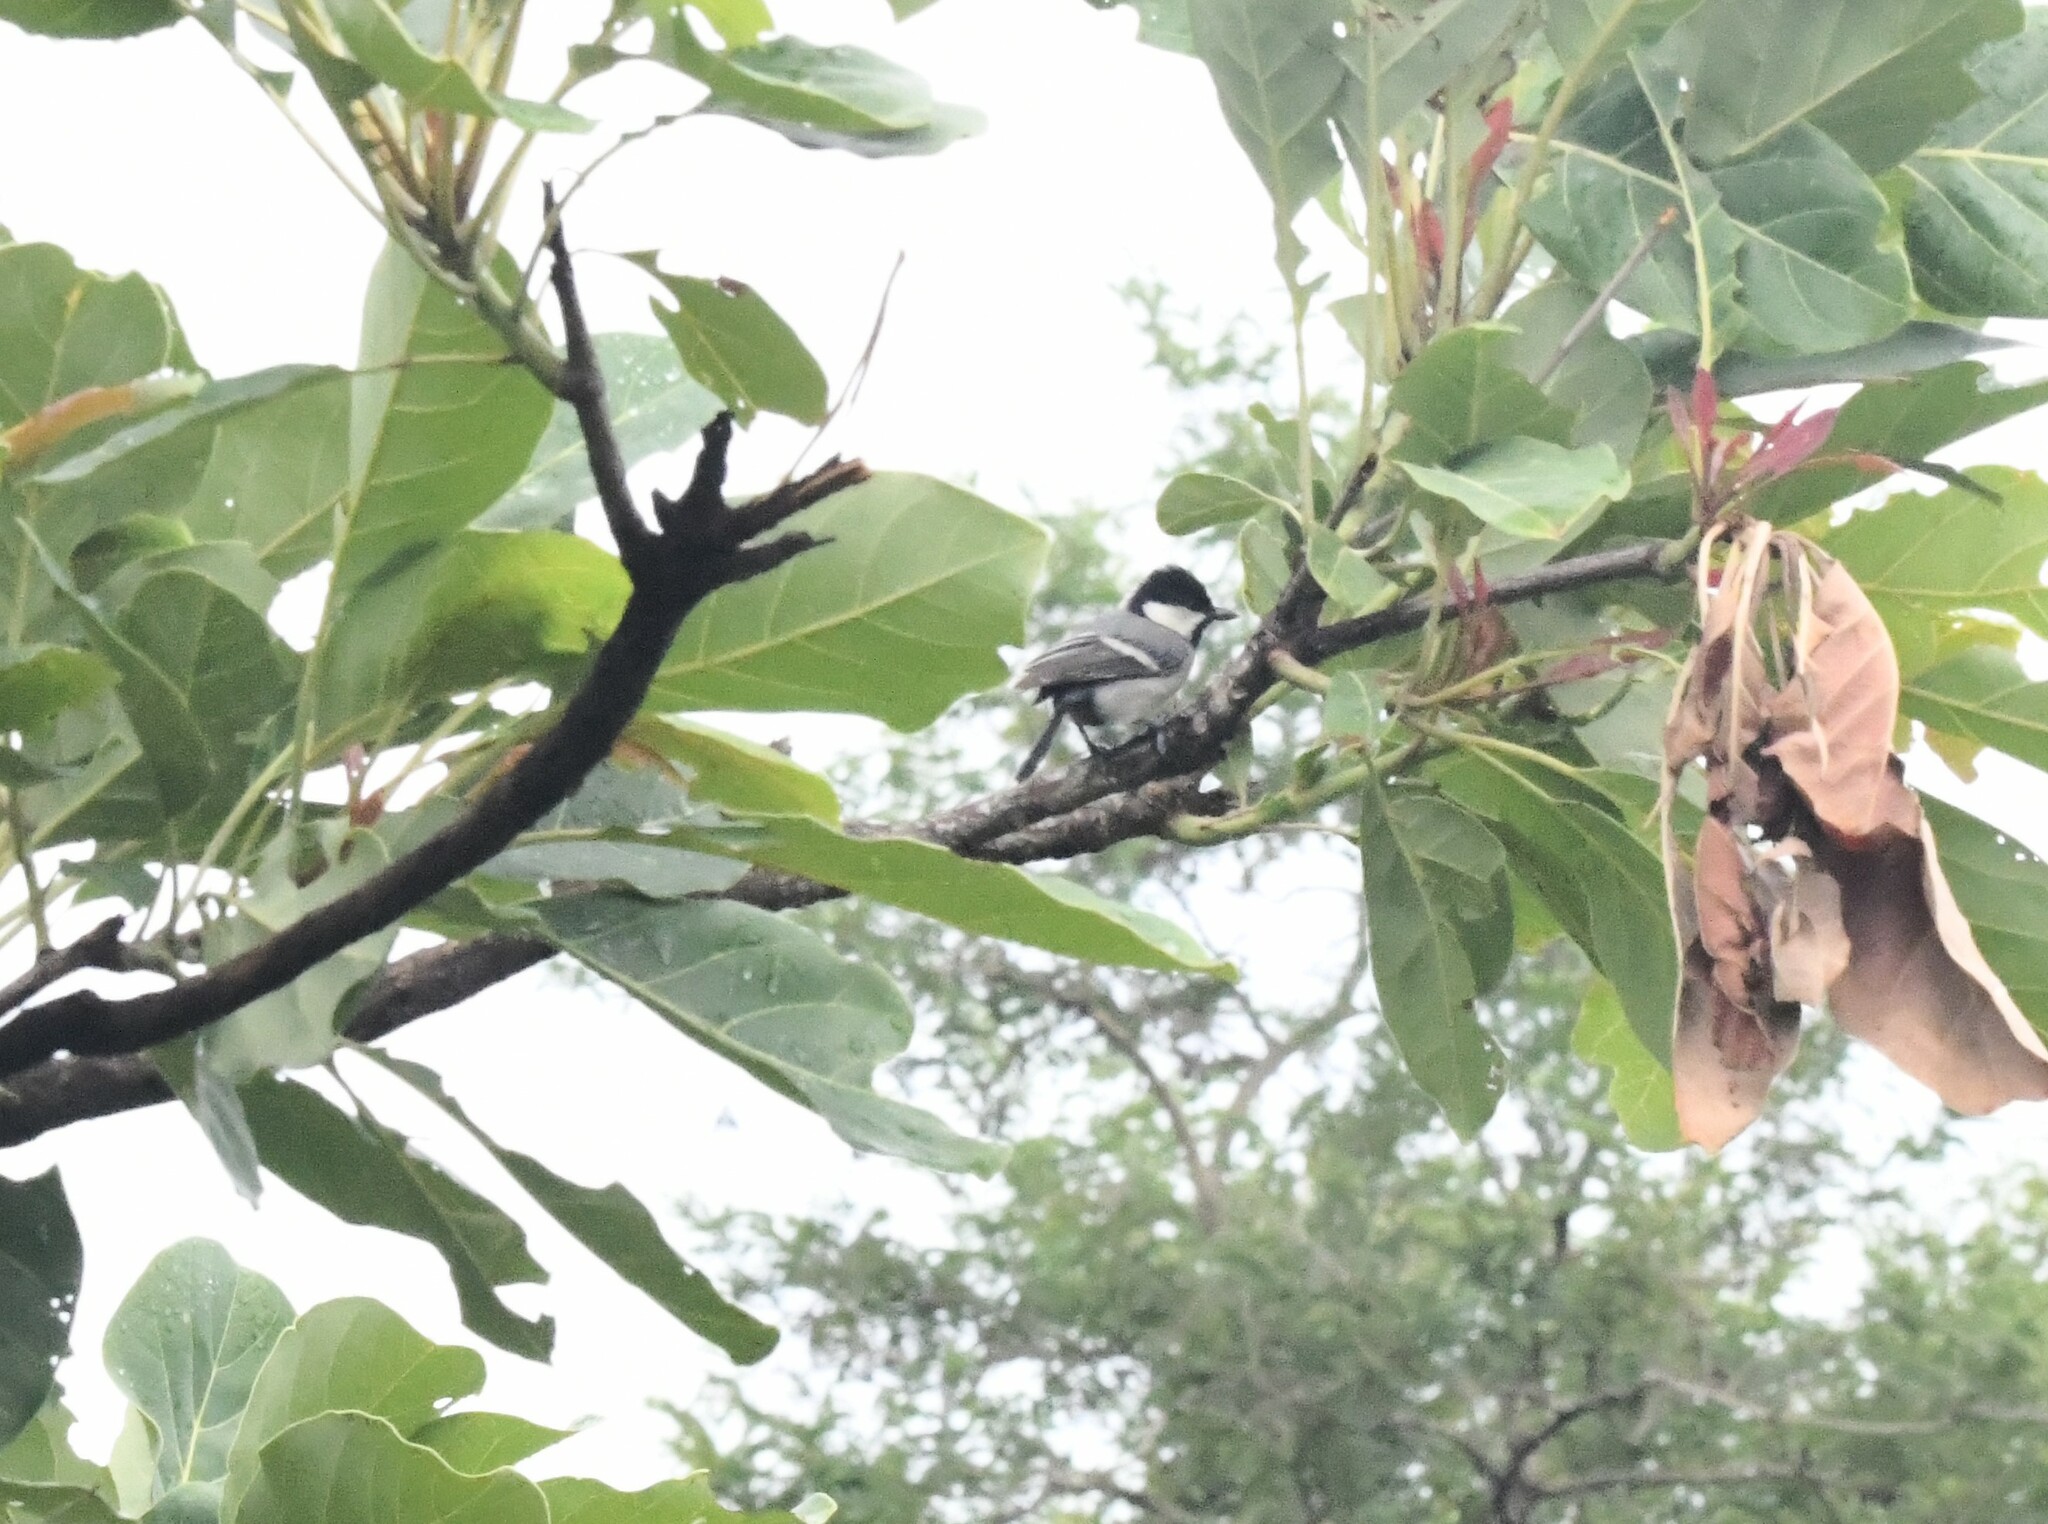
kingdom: Animalia
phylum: Chordata
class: Aves
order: Passeriformes
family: Paridae
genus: Parus
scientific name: Parus cinereus
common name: Cinereous tit
